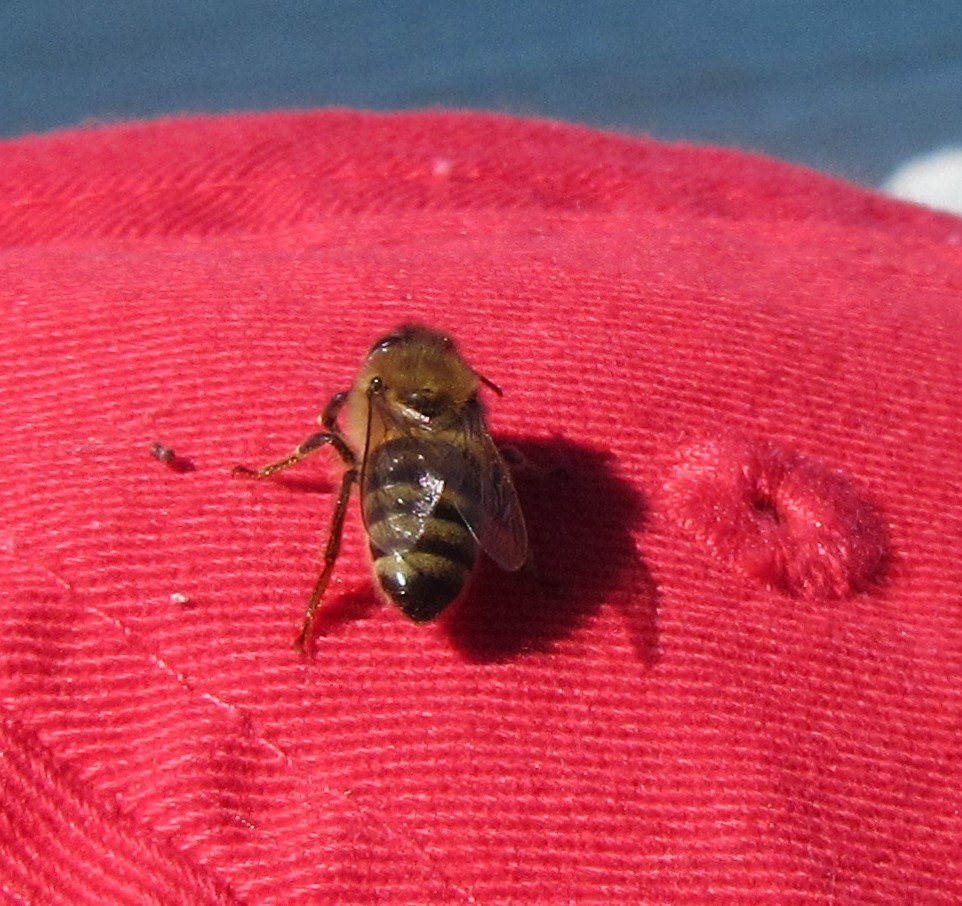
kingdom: Animalia
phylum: Arthropoda
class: Insecta
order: Hymenoptera
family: Apidae
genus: Apis
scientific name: Apis mellifera
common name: Honey bee
